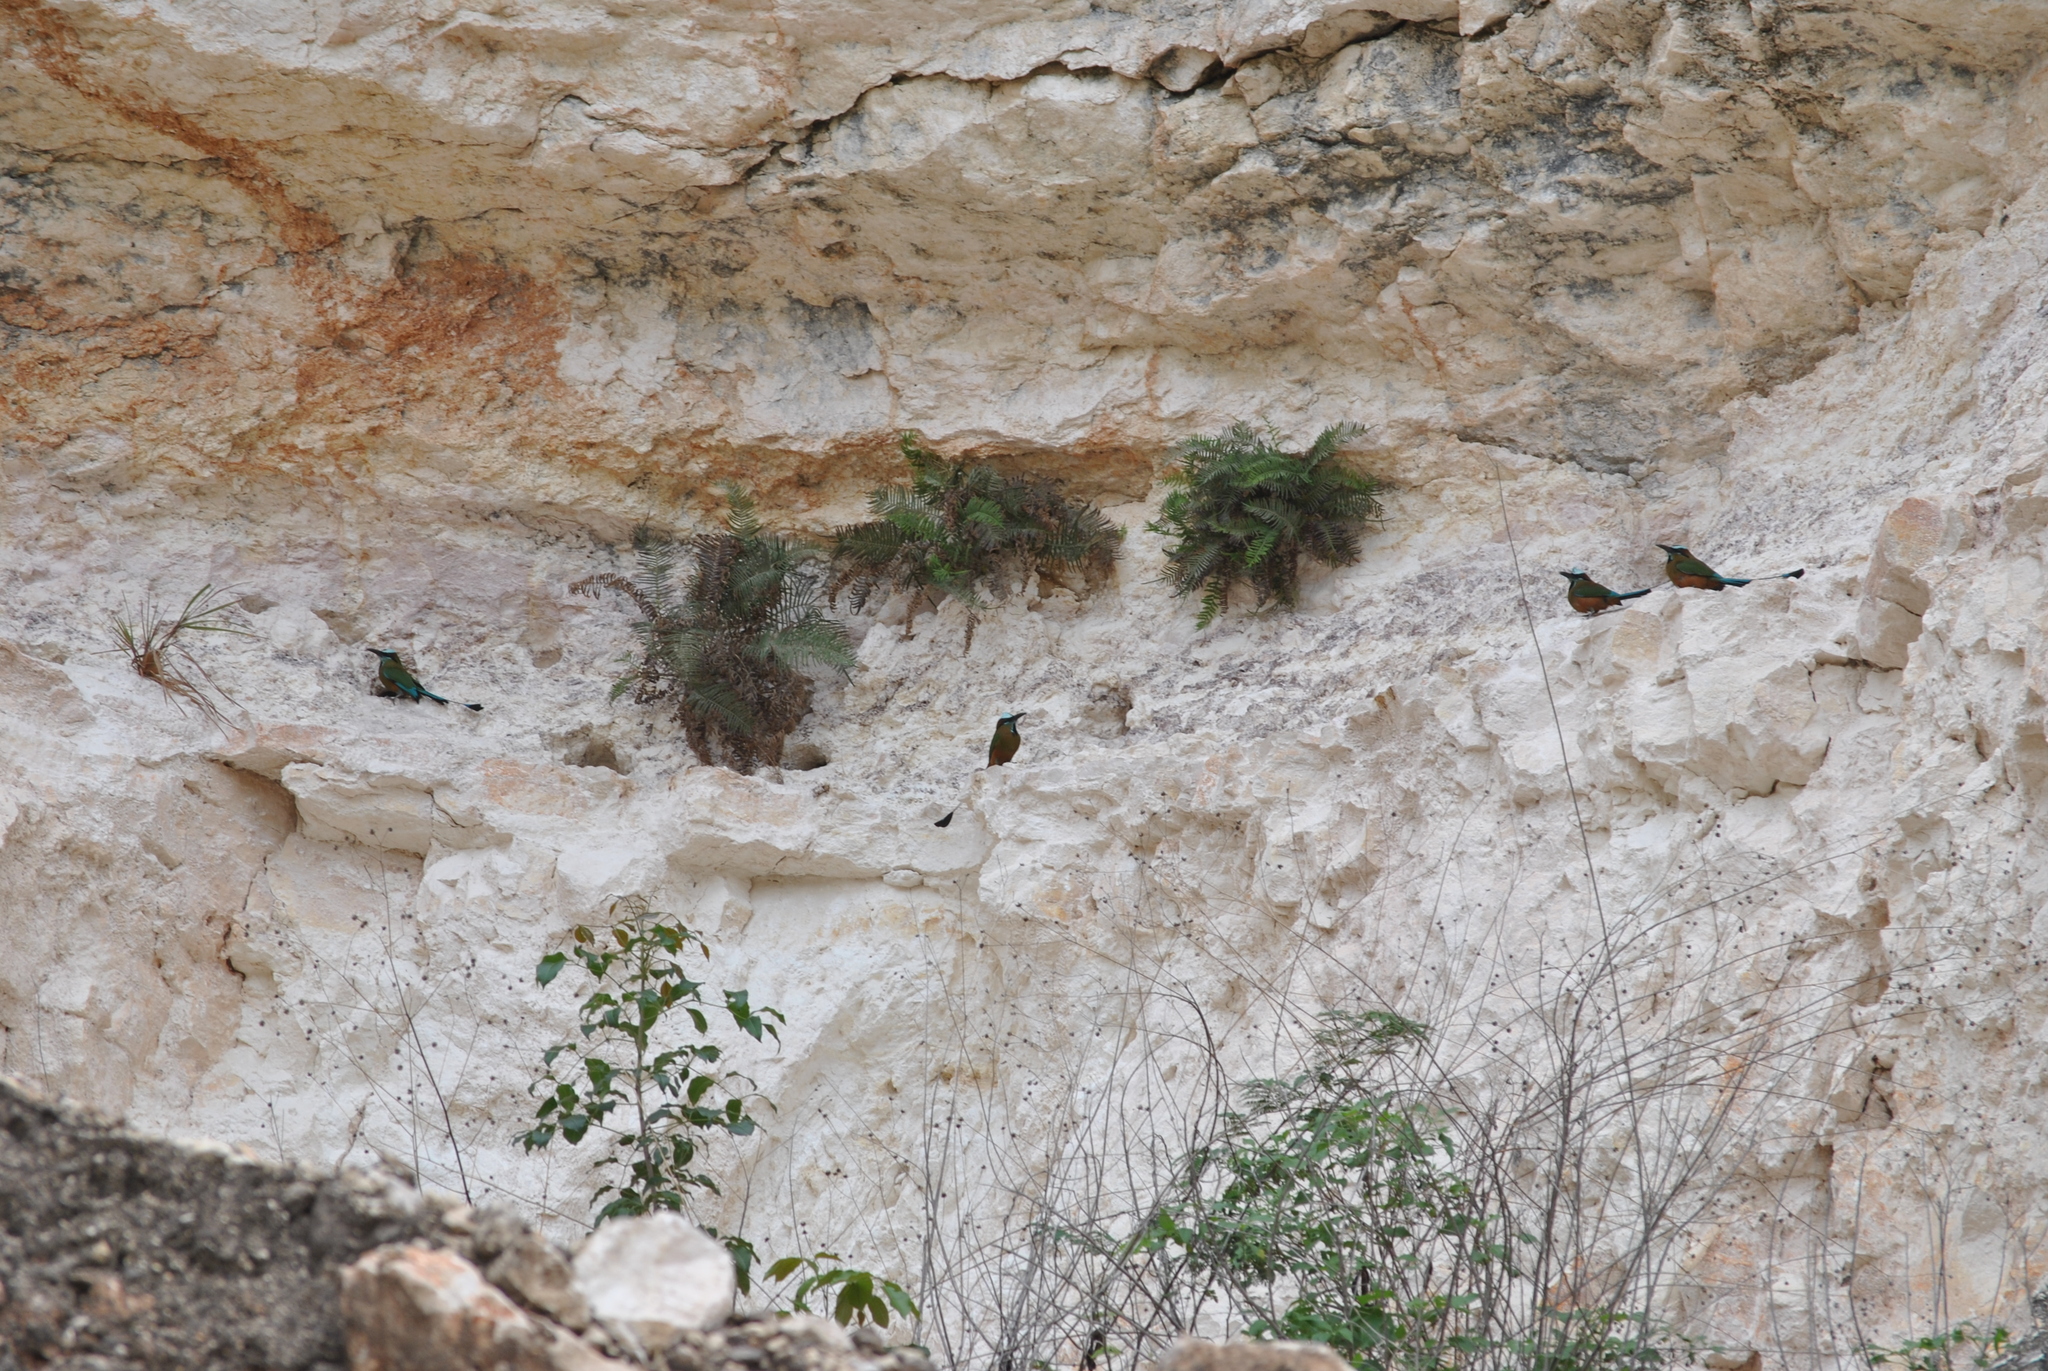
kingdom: Animalia
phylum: Chordata
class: Aves
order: Coraciiformes
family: Momotidae
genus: Eumomota
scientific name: Eumomota superciliosa
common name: Turquoise-browed motmot
